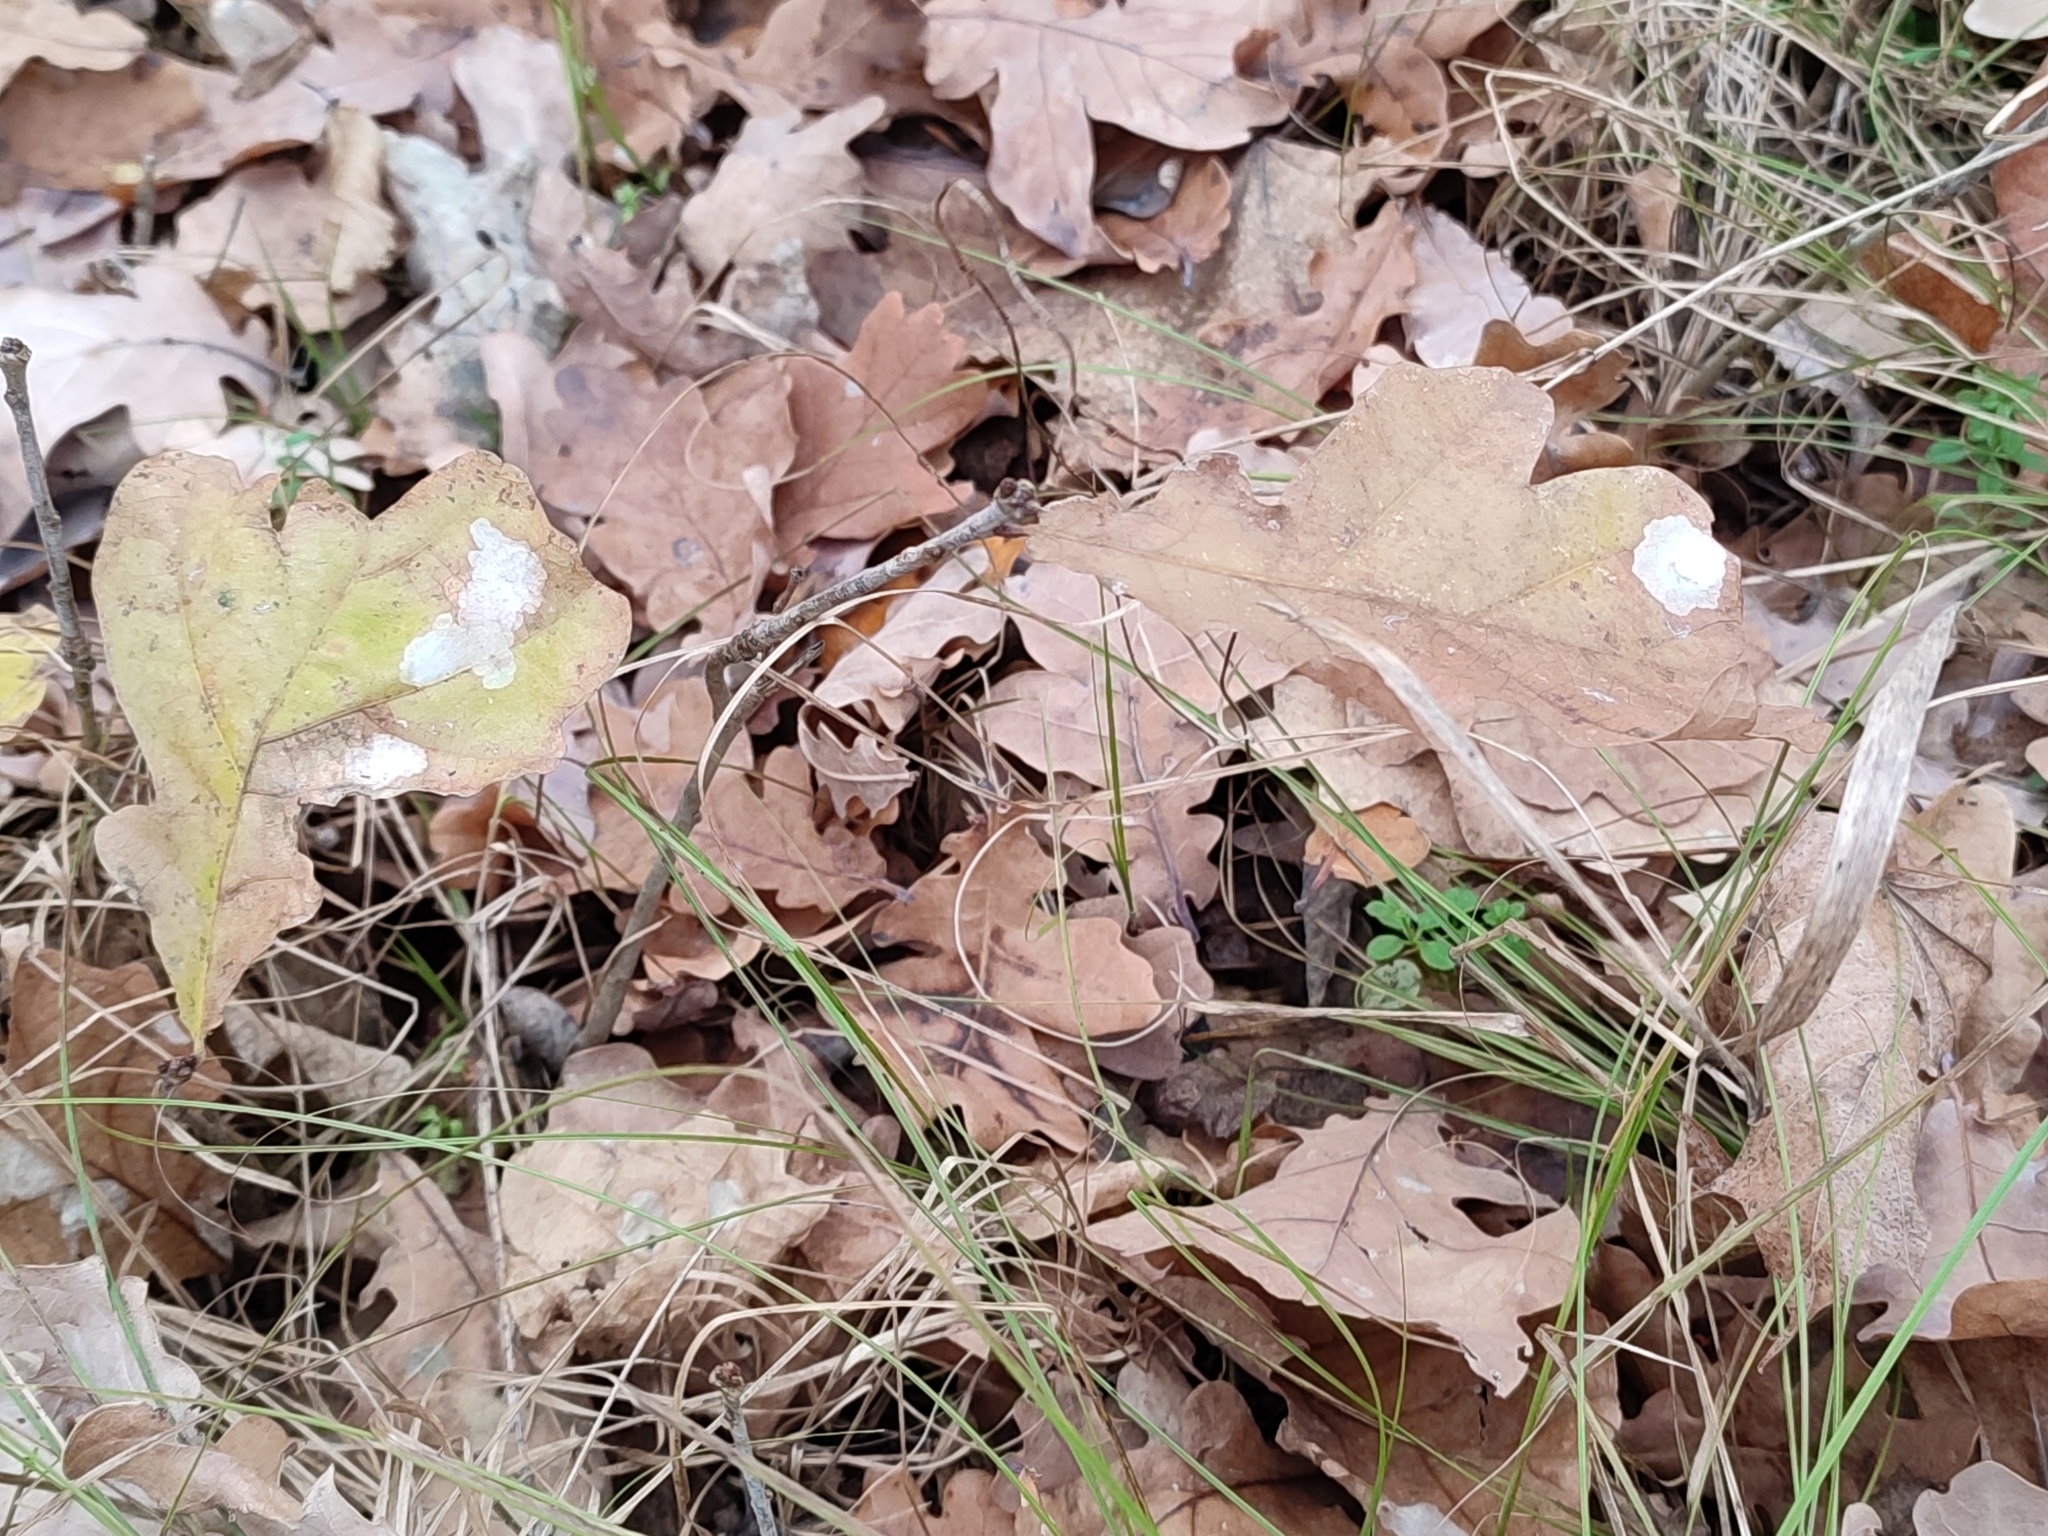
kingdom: Plantae
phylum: Tracheophyta
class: Magnoliopsida
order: Fagales
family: Fagaceae
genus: Quercus
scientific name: Quercus robur
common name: Pedunculate oak
